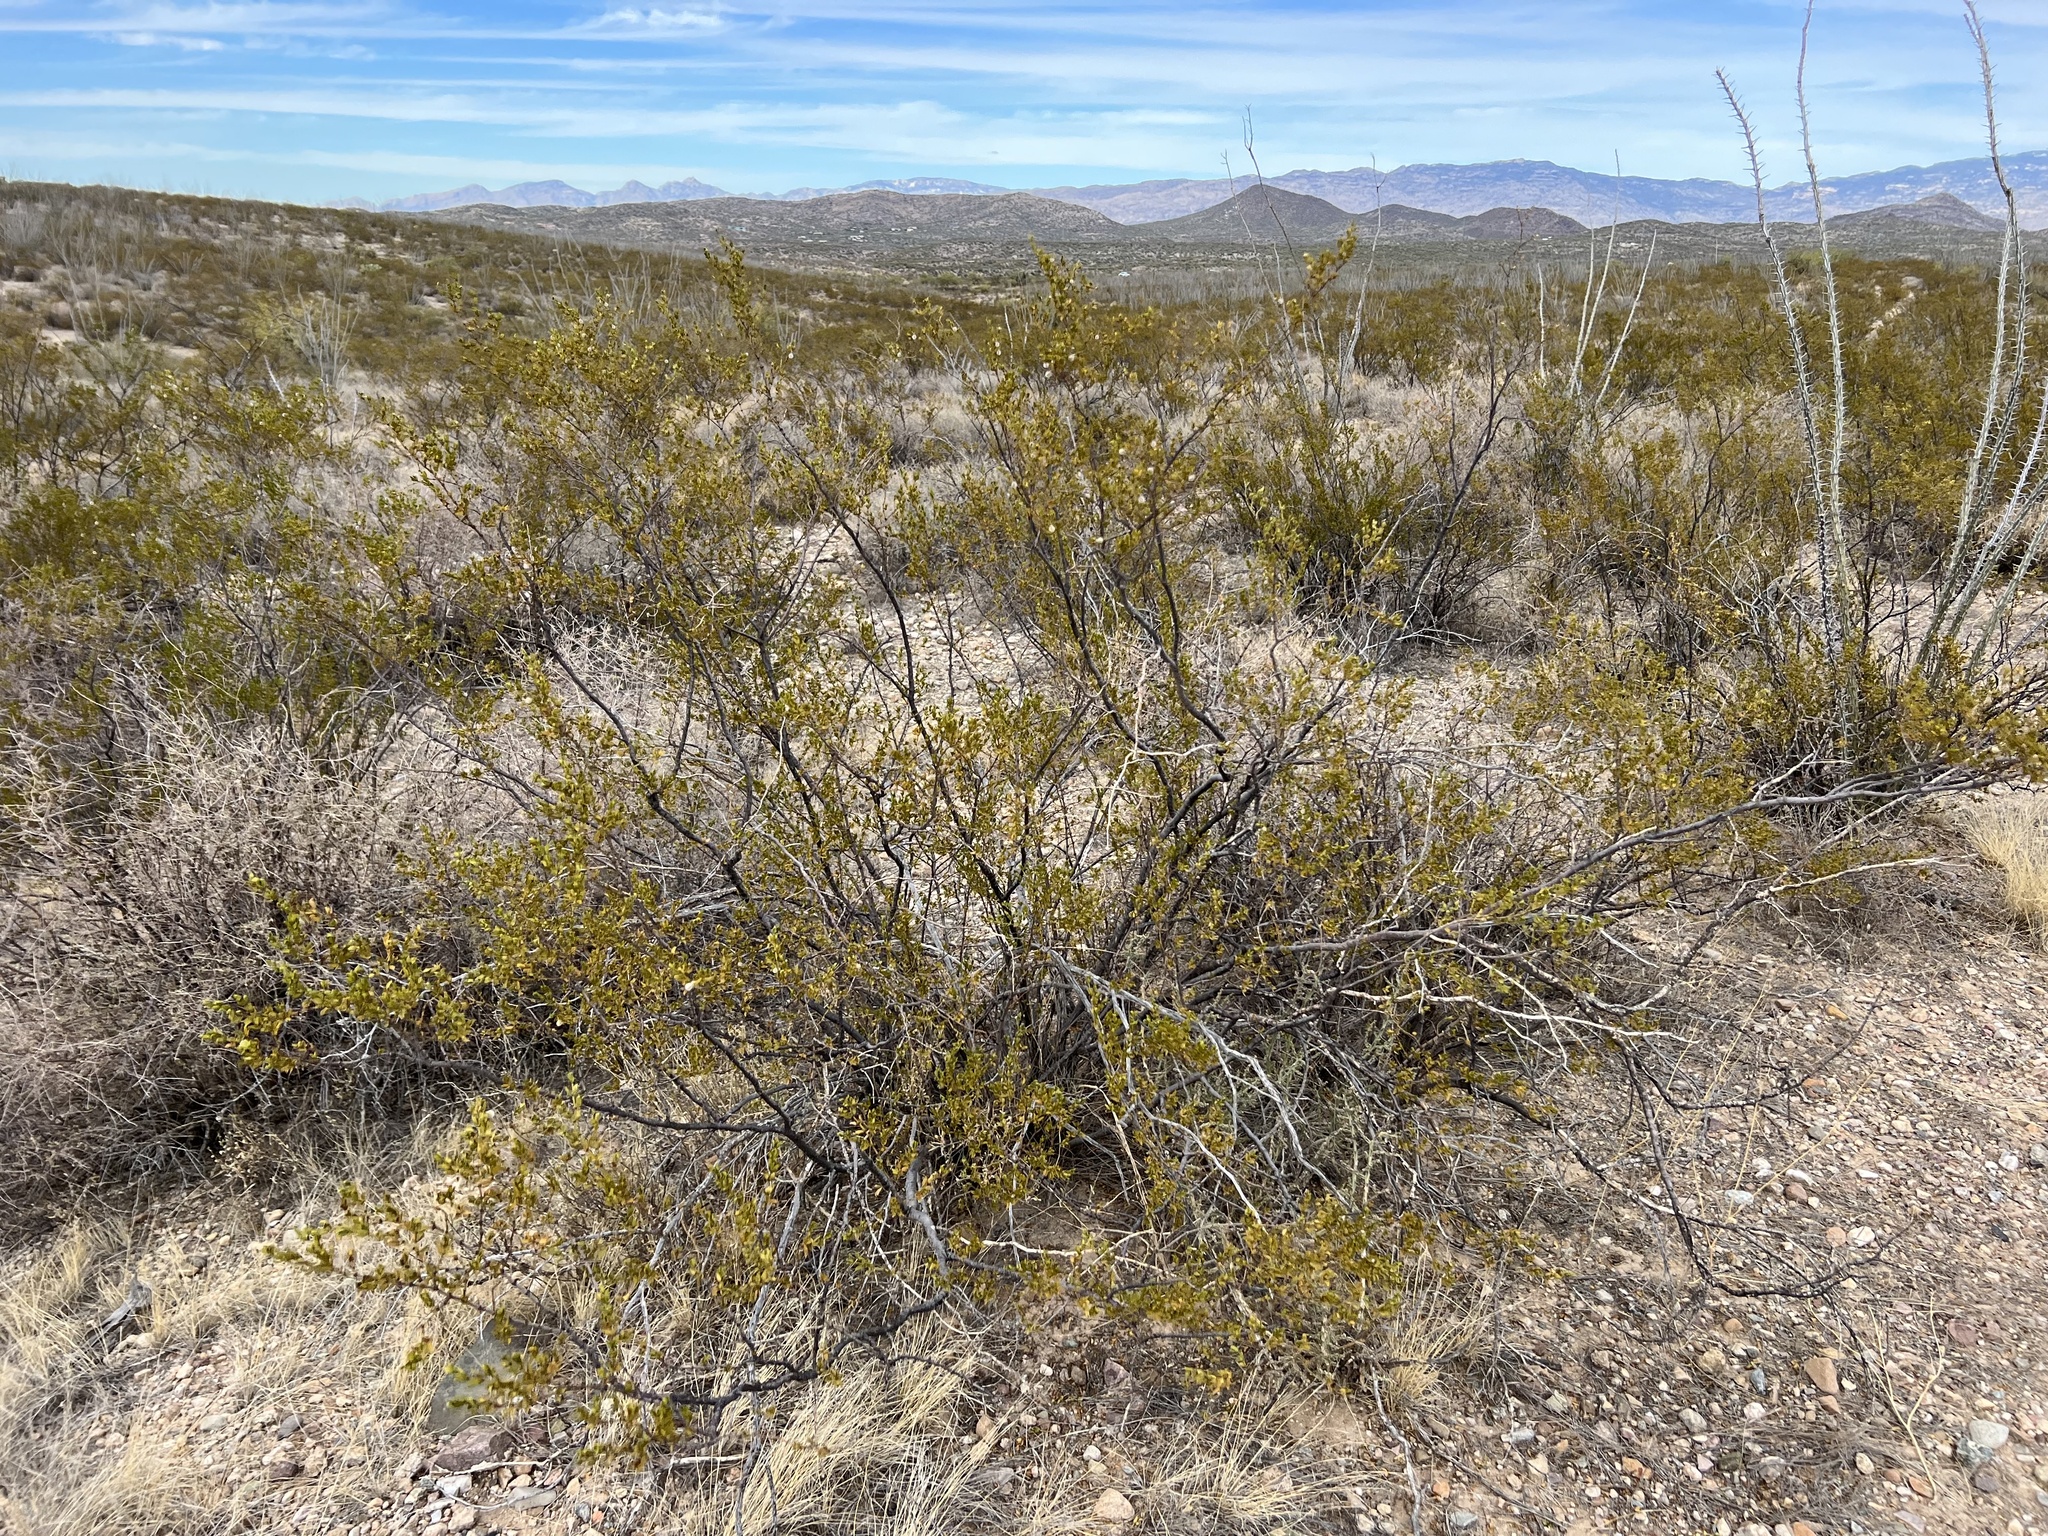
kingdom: Plantae
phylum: Tracheophyta
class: Magnoliopsida
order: Zygophyllales
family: Zygophyllaceae
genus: Larrea
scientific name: Larrea tridentata
